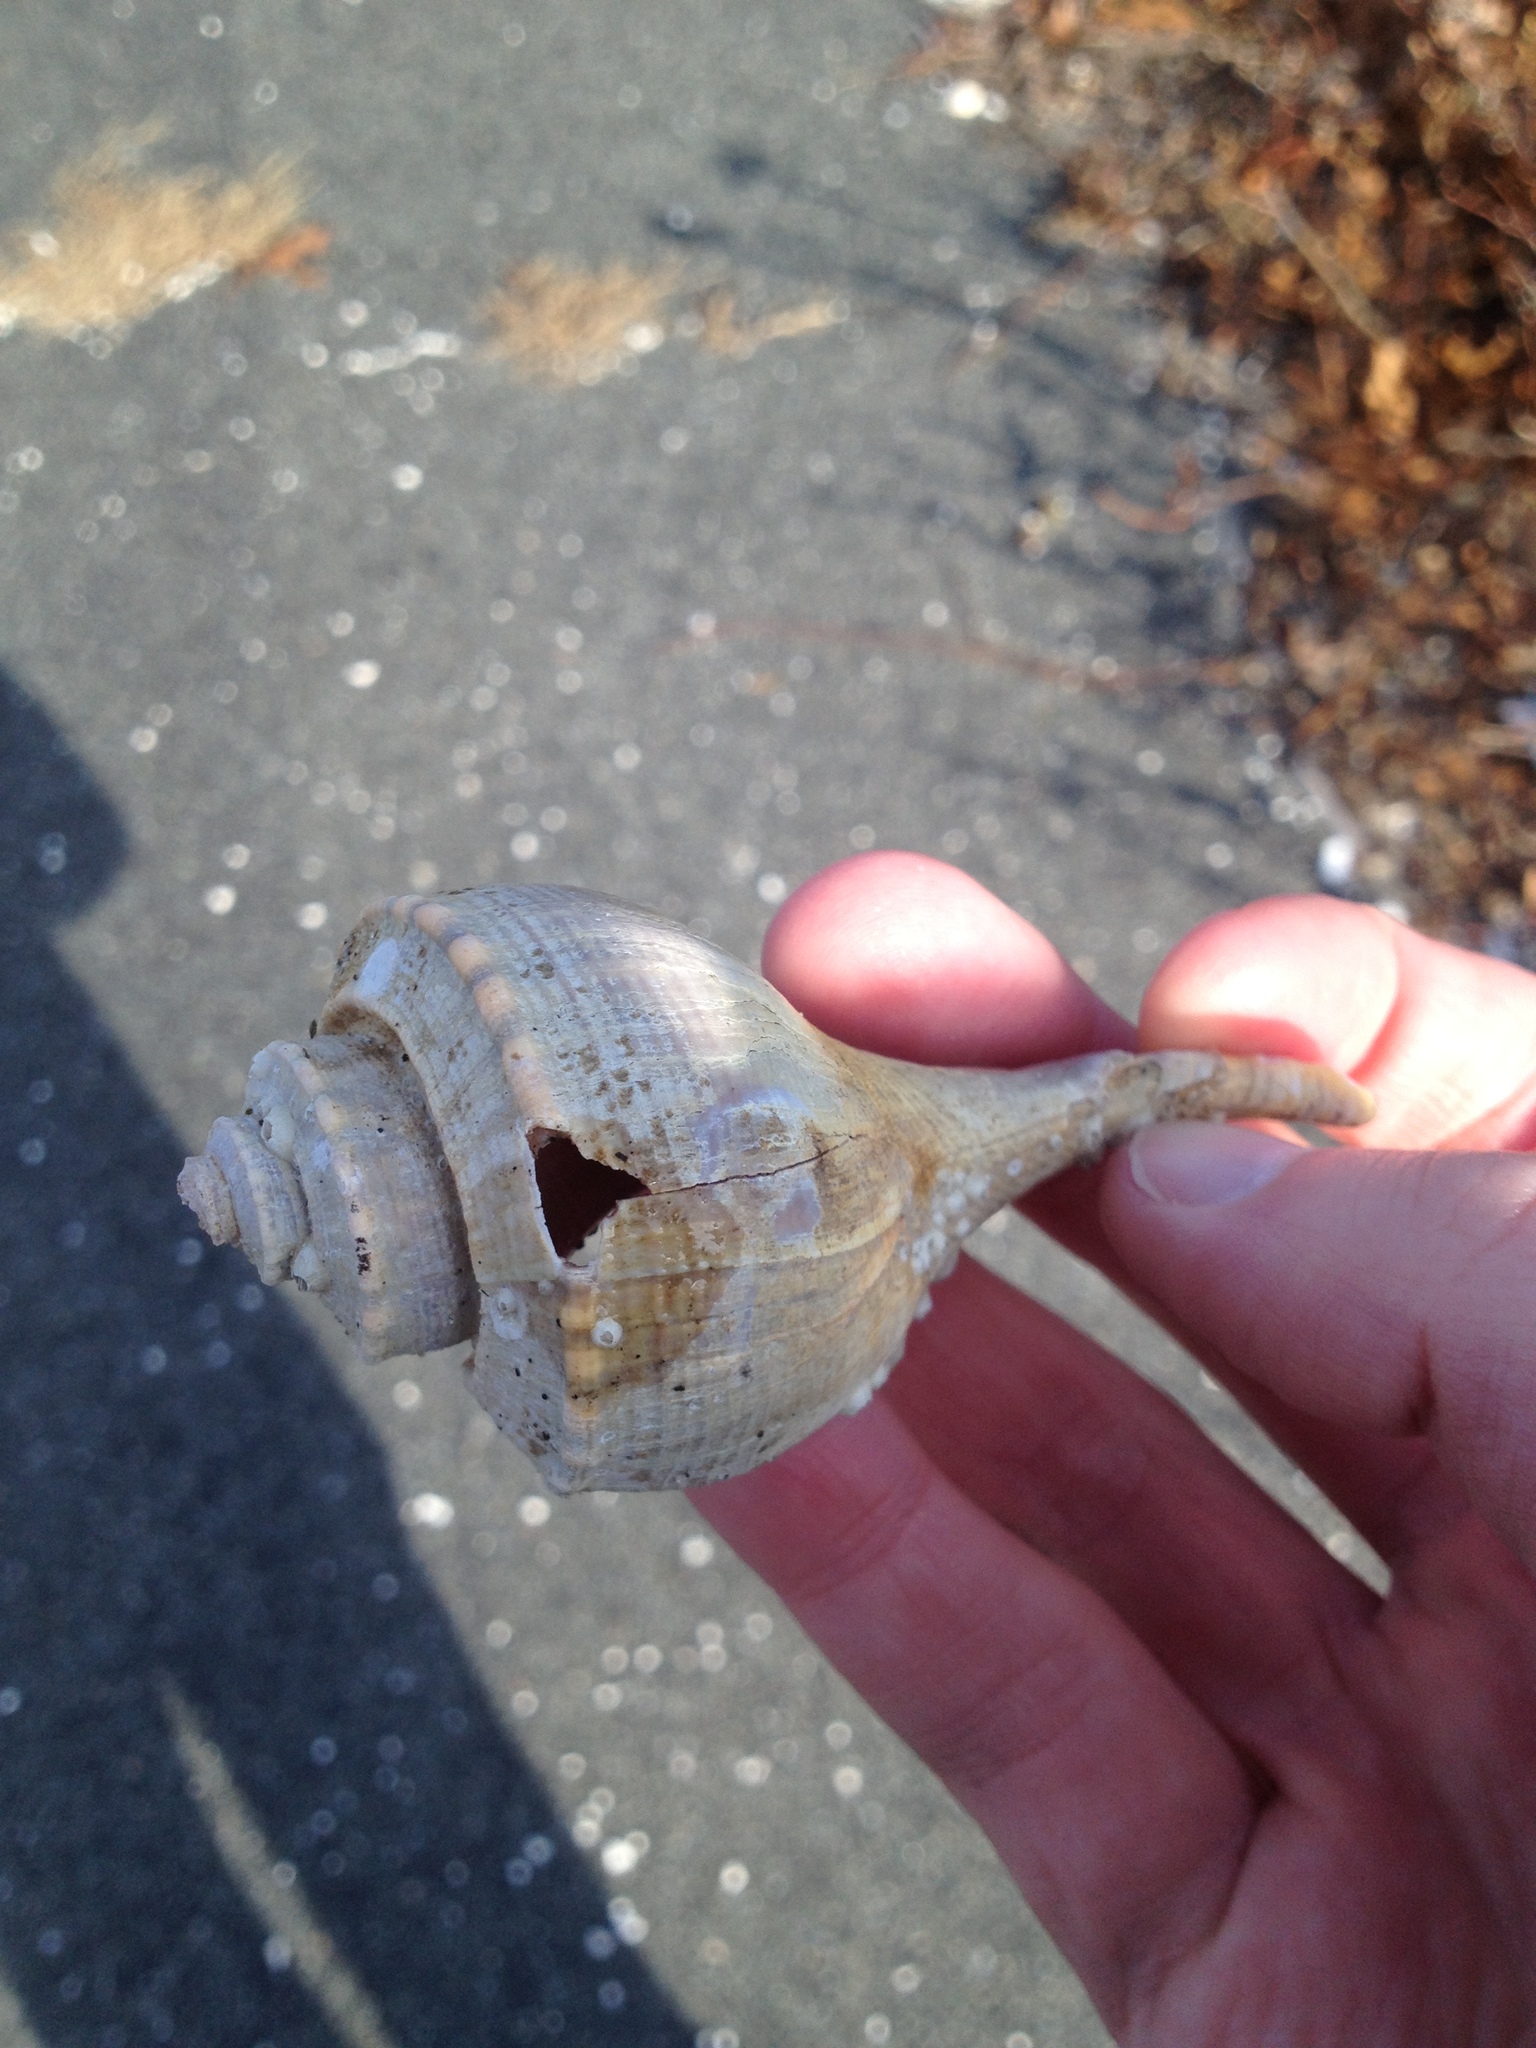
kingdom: Animalia
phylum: Mollusca
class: Gastropoda
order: Neogastropoda
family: Busyconidae
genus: Busycotypus
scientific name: Busycotypus canaliculatus
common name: Channeled whelk
